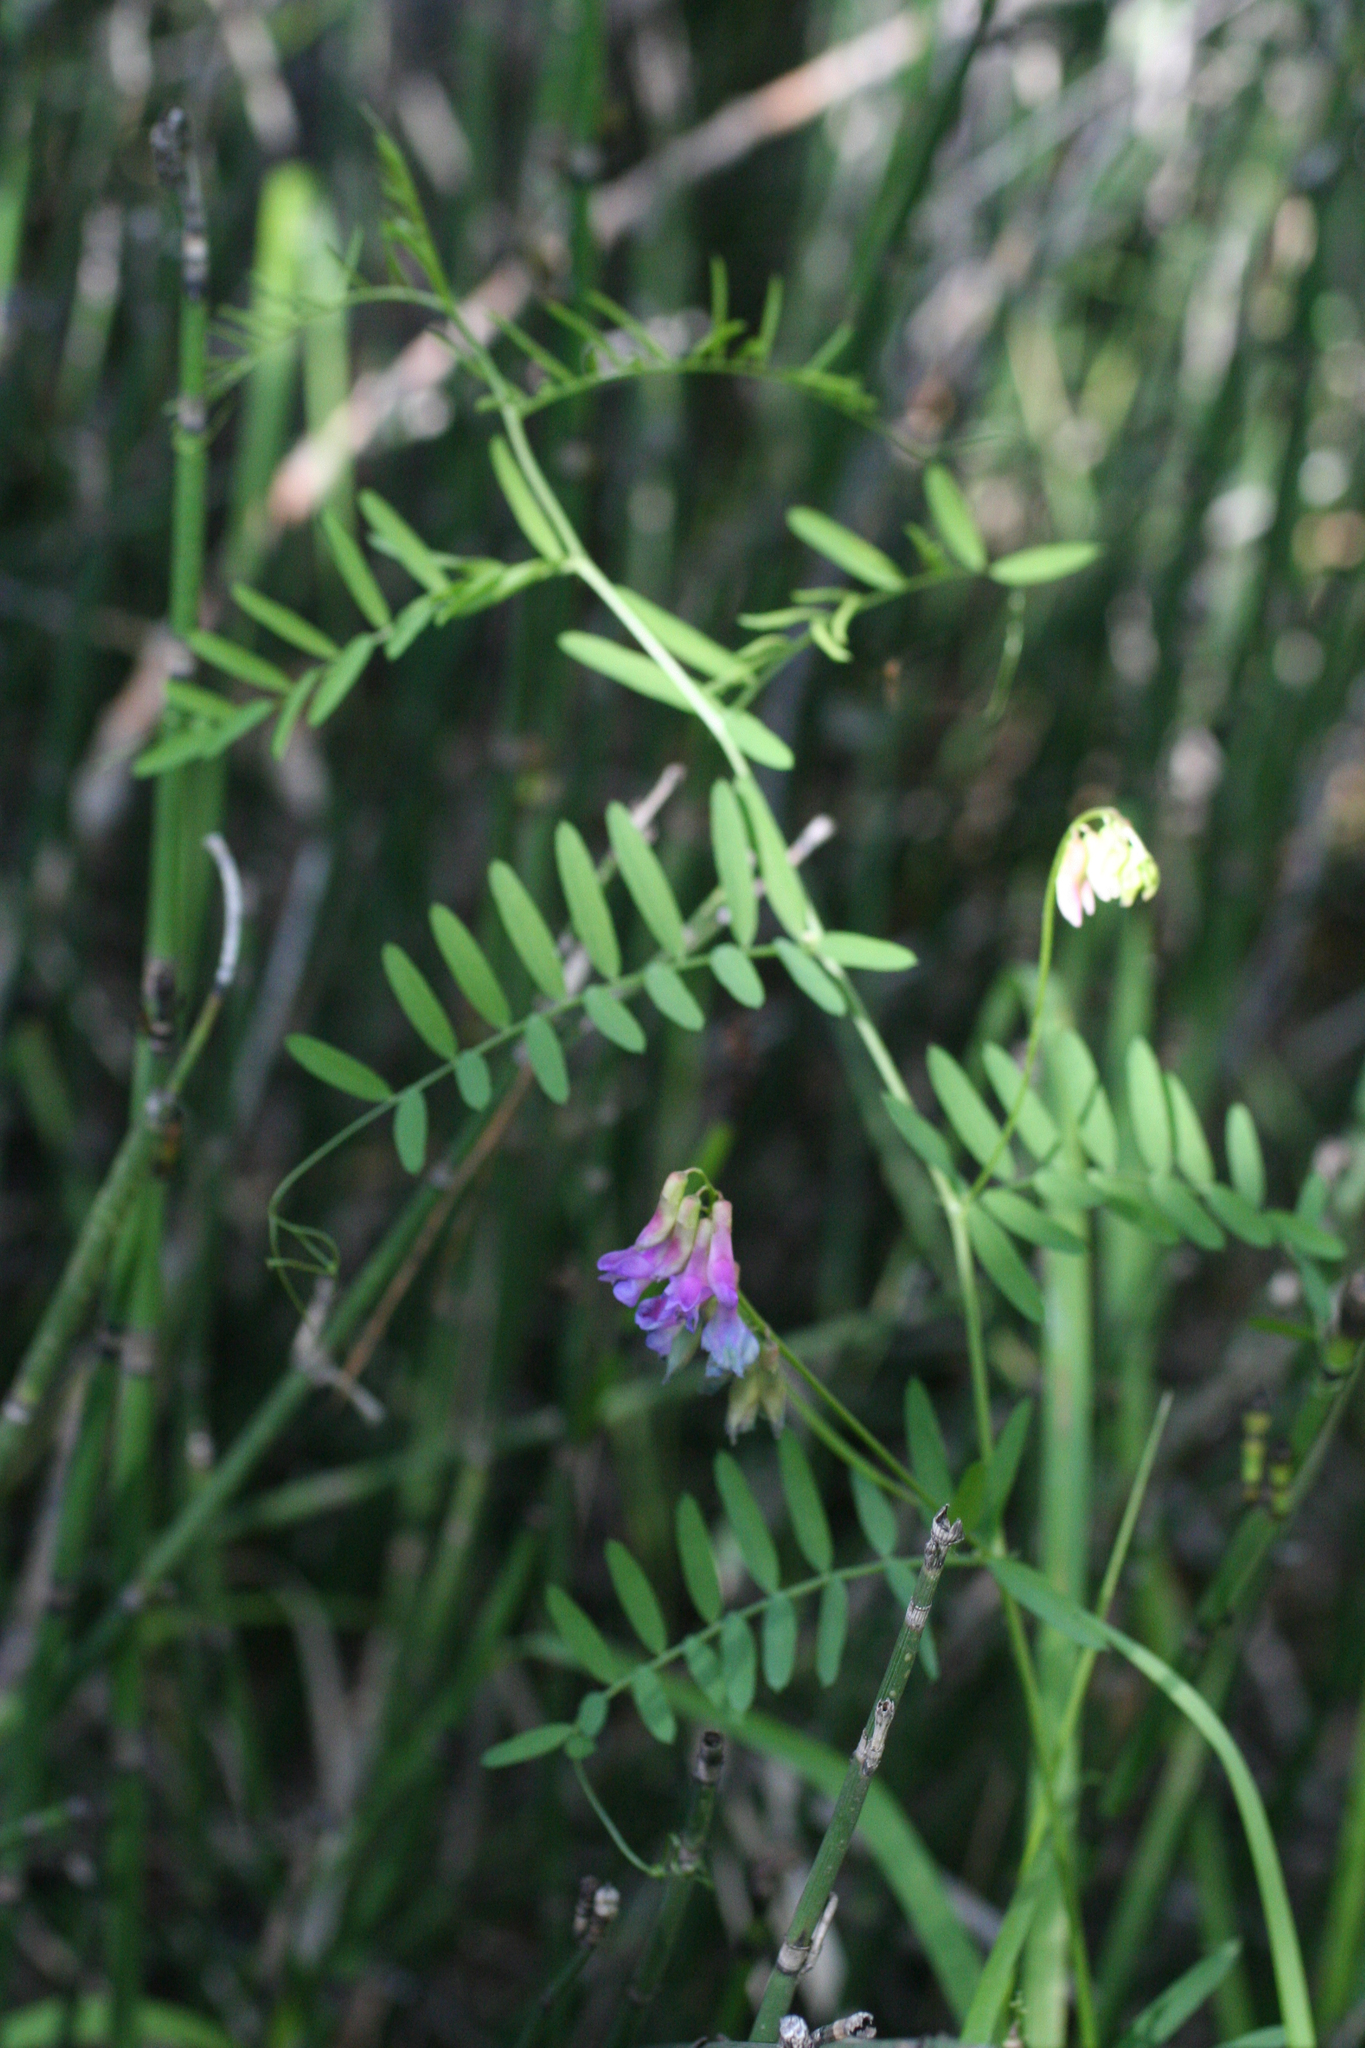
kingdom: Plantae
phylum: Tracheophyta
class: Magnoliopsida
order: Fabales
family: Fabaceae
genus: Vicia
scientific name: Vicia cracca
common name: Bird vetch
